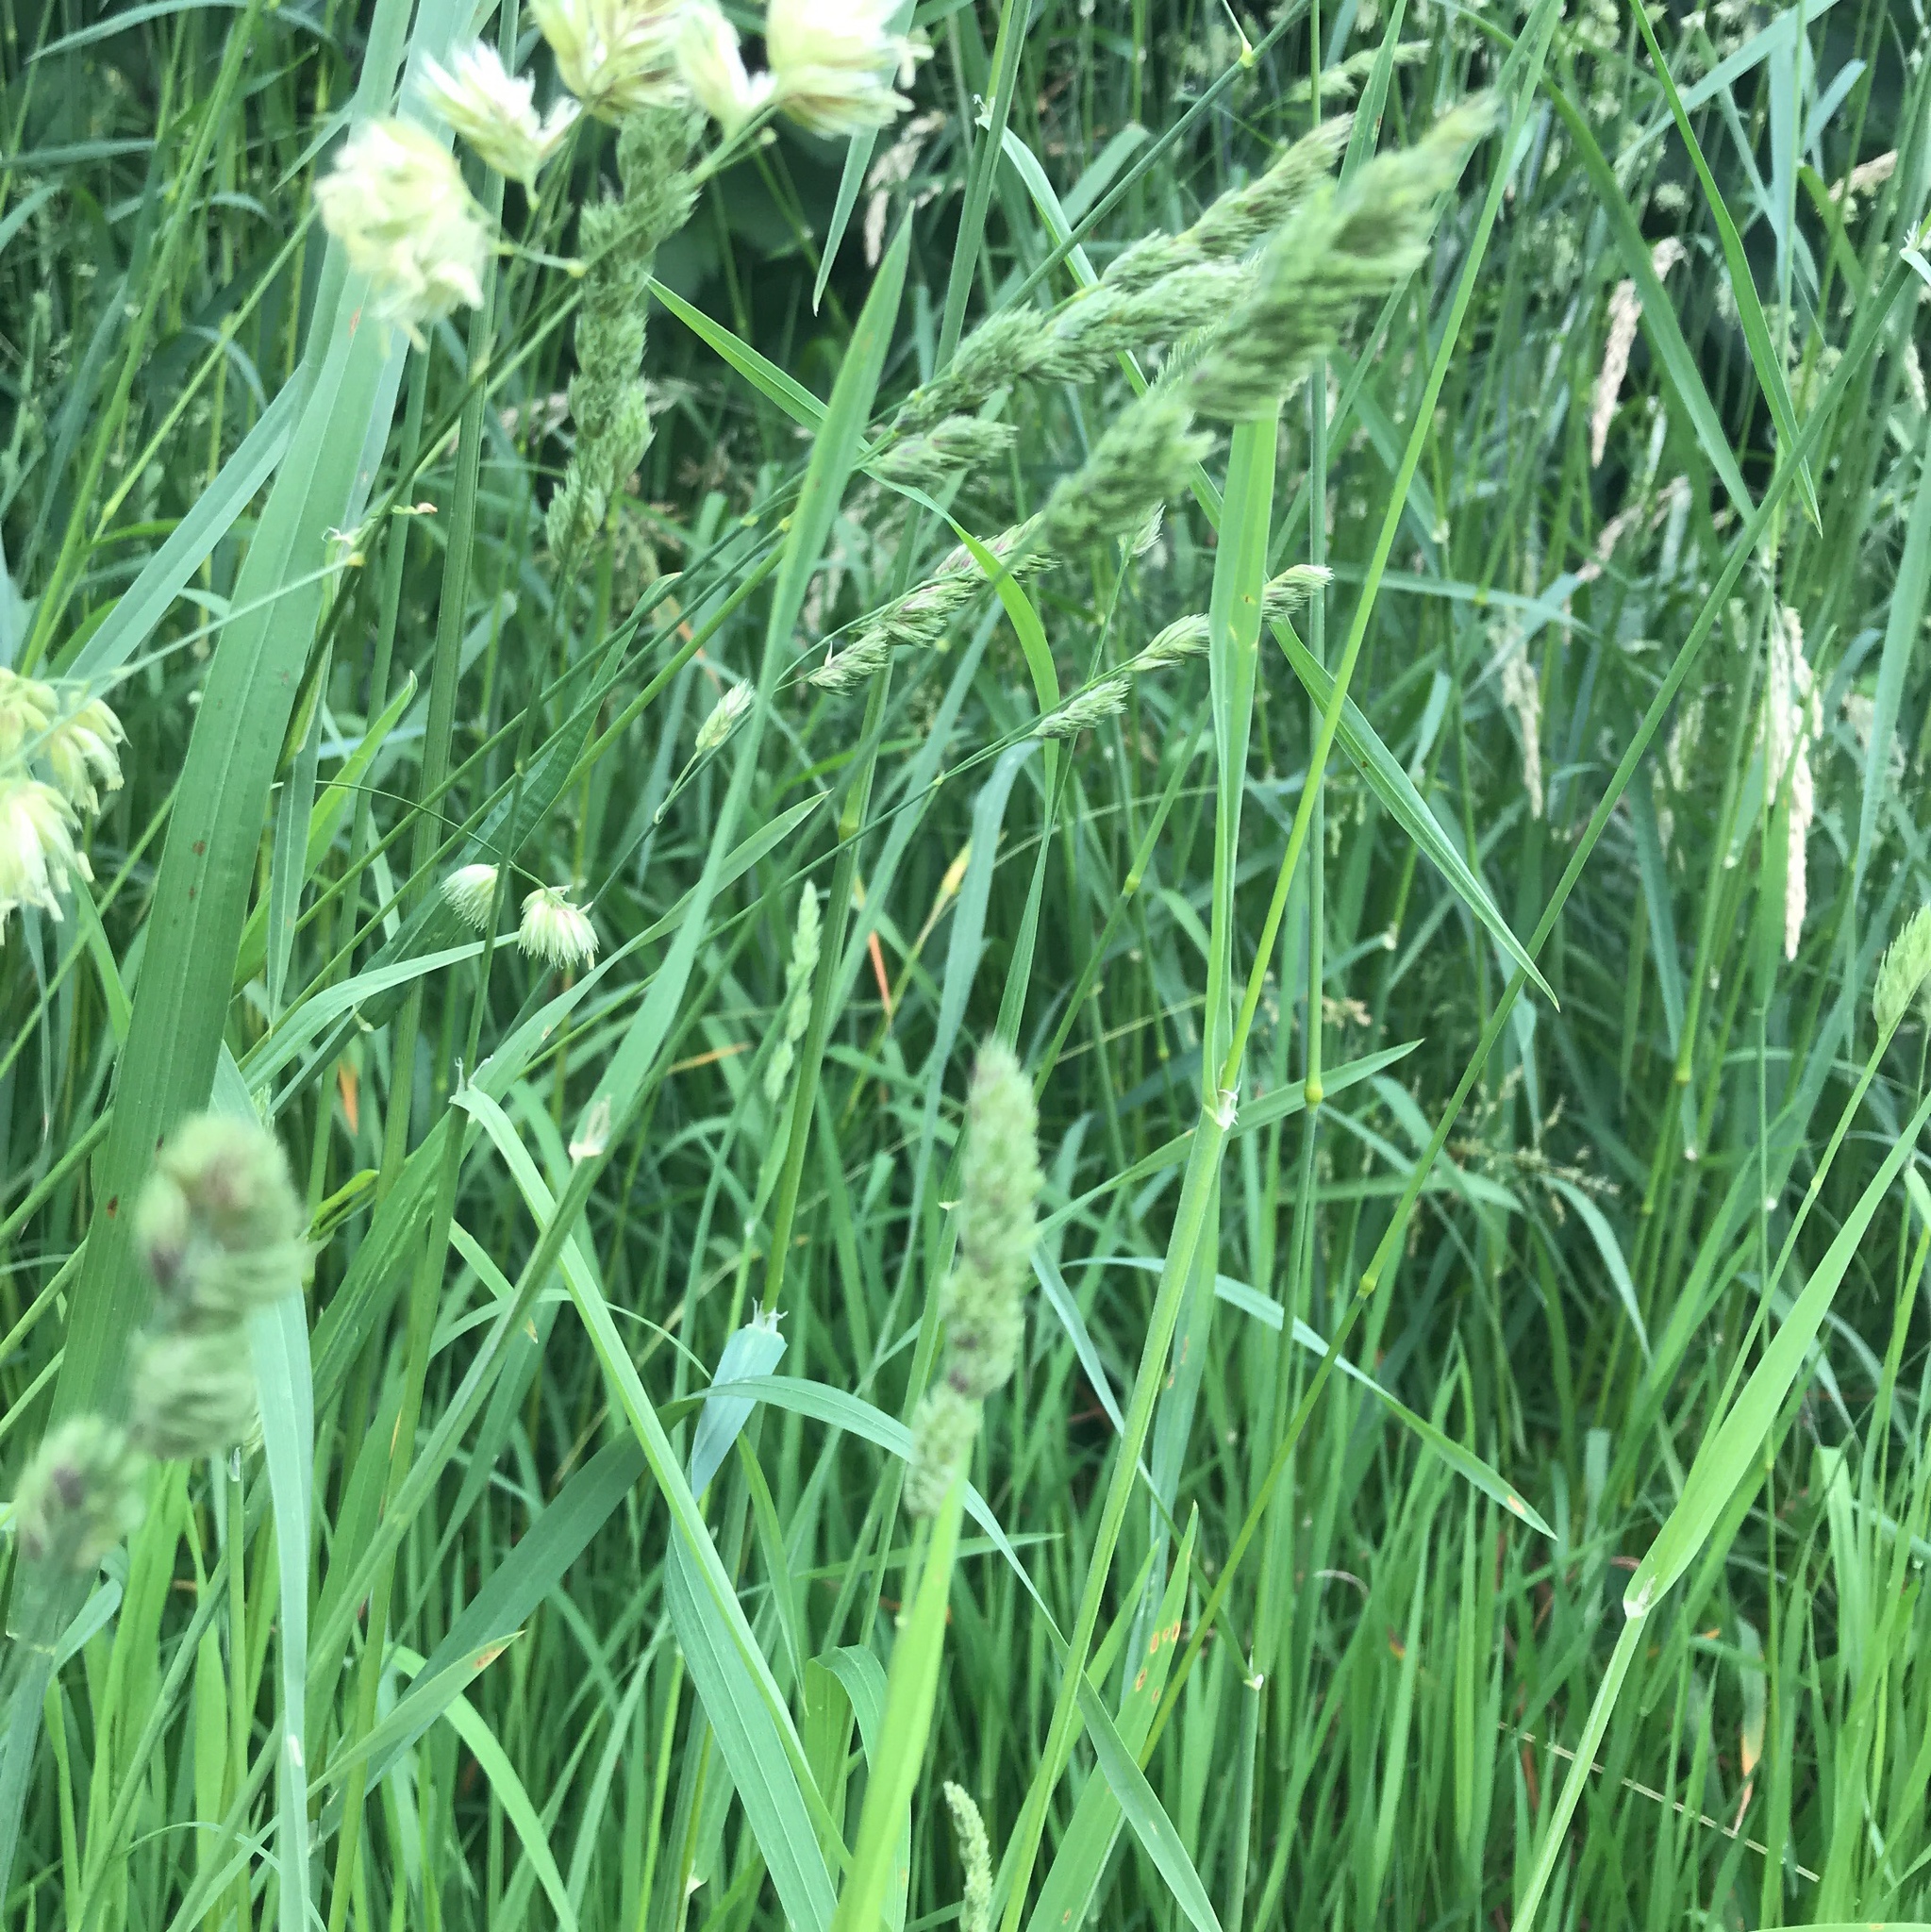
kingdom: Plantae
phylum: Tracheophyta
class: Liliopsida
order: Poales
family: Poaceae
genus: Dactylis
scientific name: Dactylis glomerata
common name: Orchardgrass
